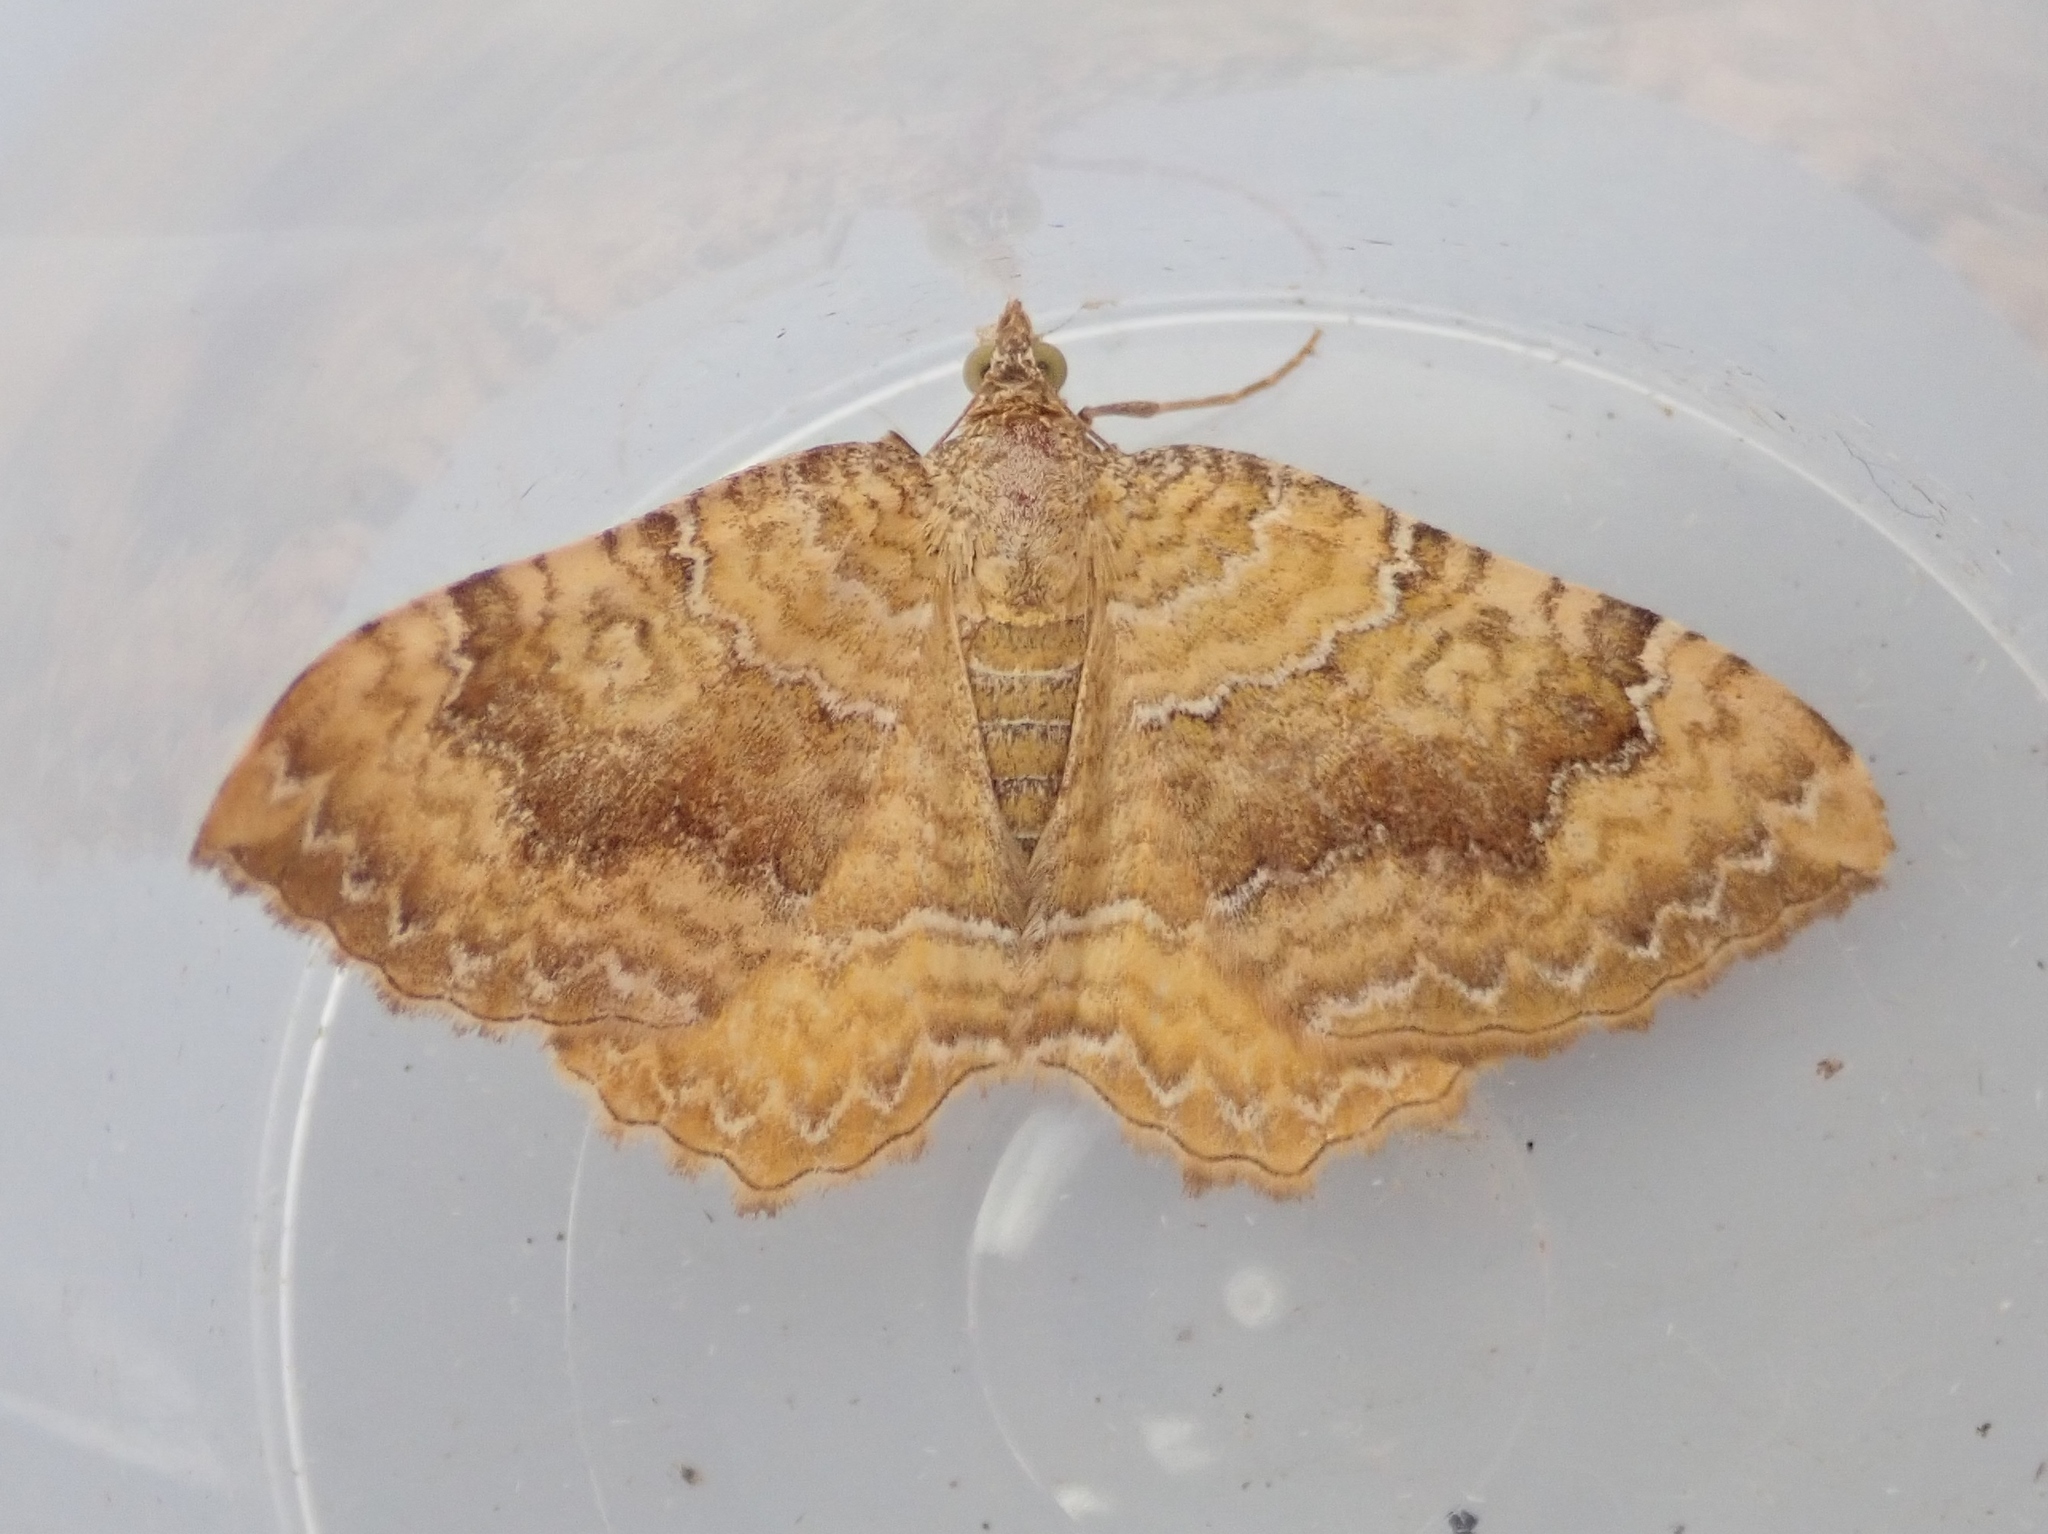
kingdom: Animalia
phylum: Arthropoda
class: Insecta
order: Lepidoptera
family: Geometridae
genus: Camptogramma
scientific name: Camptogramma bilineata
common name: Yellow shell
